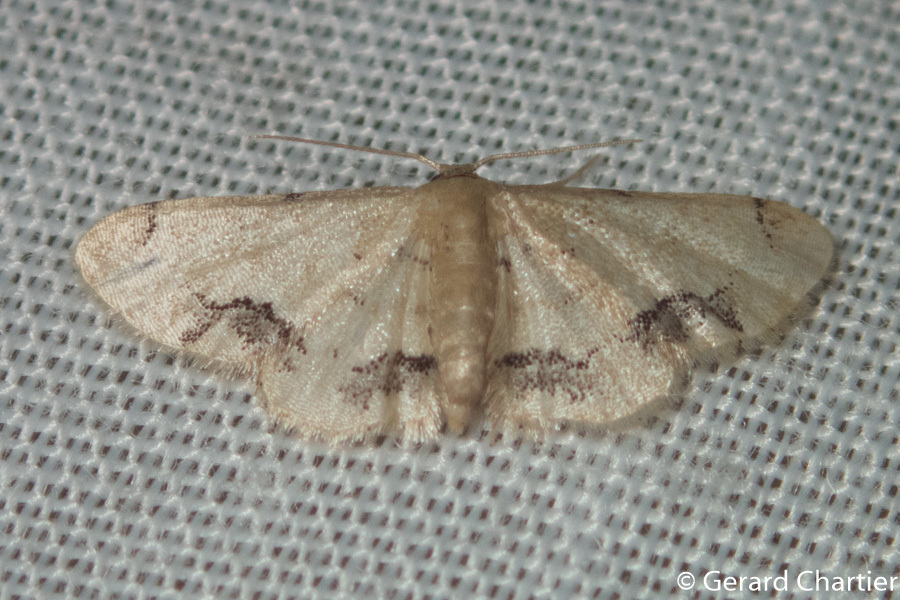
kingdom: Animalia
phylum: Arthropoda
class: Insecta
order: Lepidoptera
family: Geometridae
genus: Idaea
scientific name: Idaea chotaria
